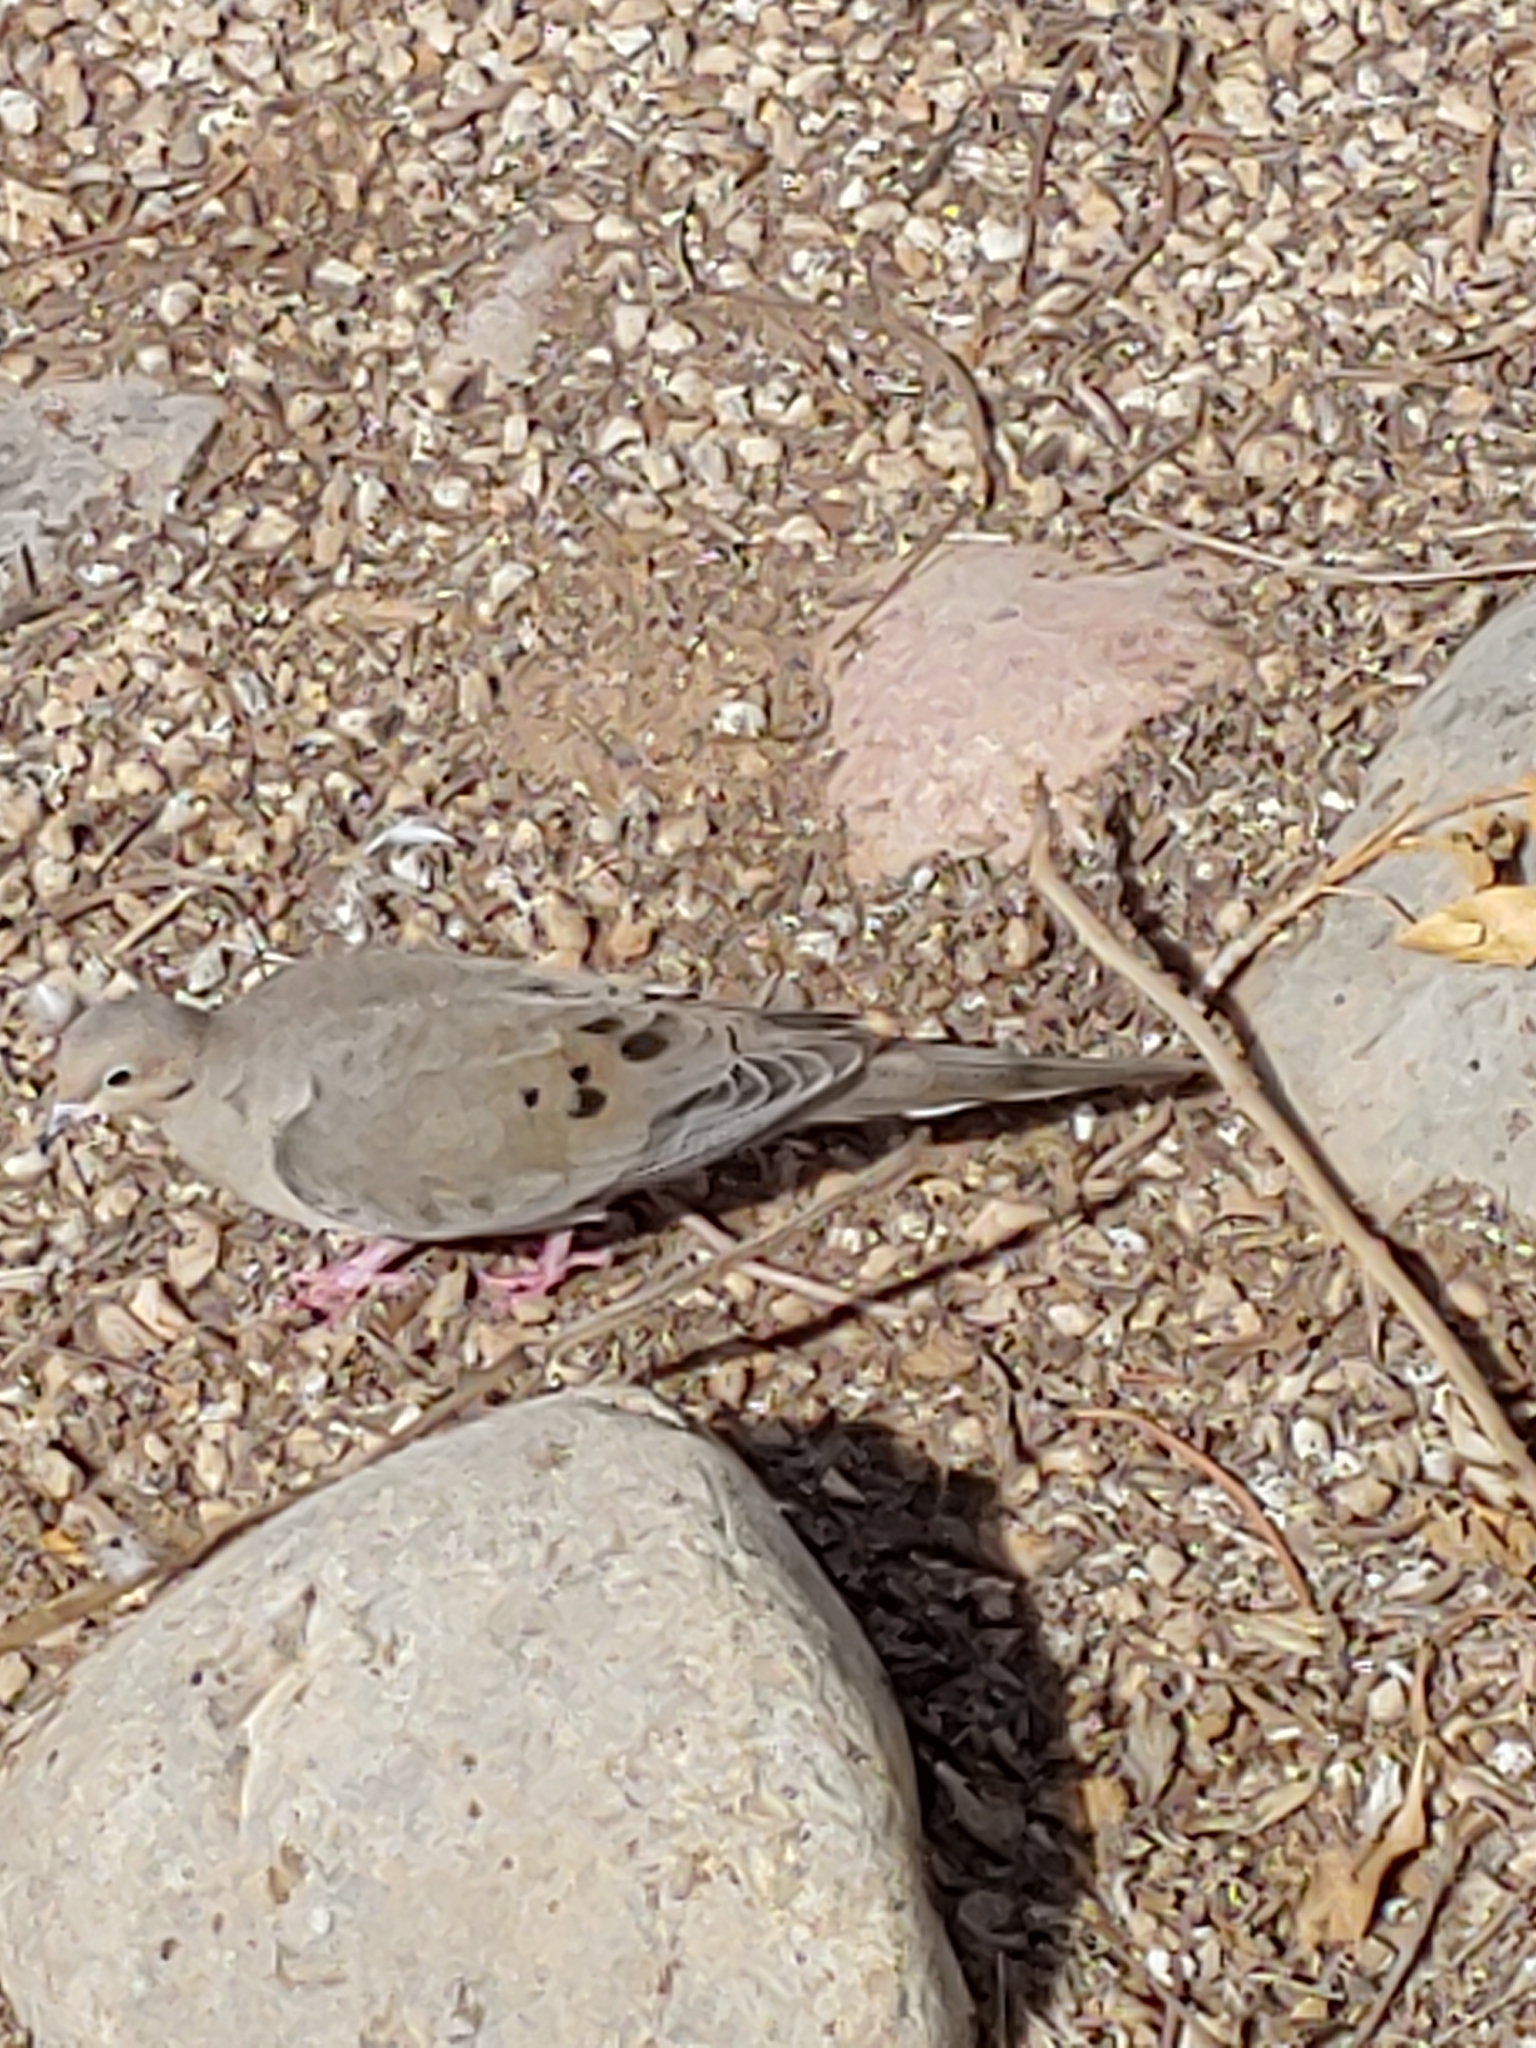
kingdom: Animalia
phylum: Chordata
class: Aves
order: Columbiformes
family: Columbidae
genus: Zenaida
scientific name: Zenaida macroura
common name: Mourning dove
